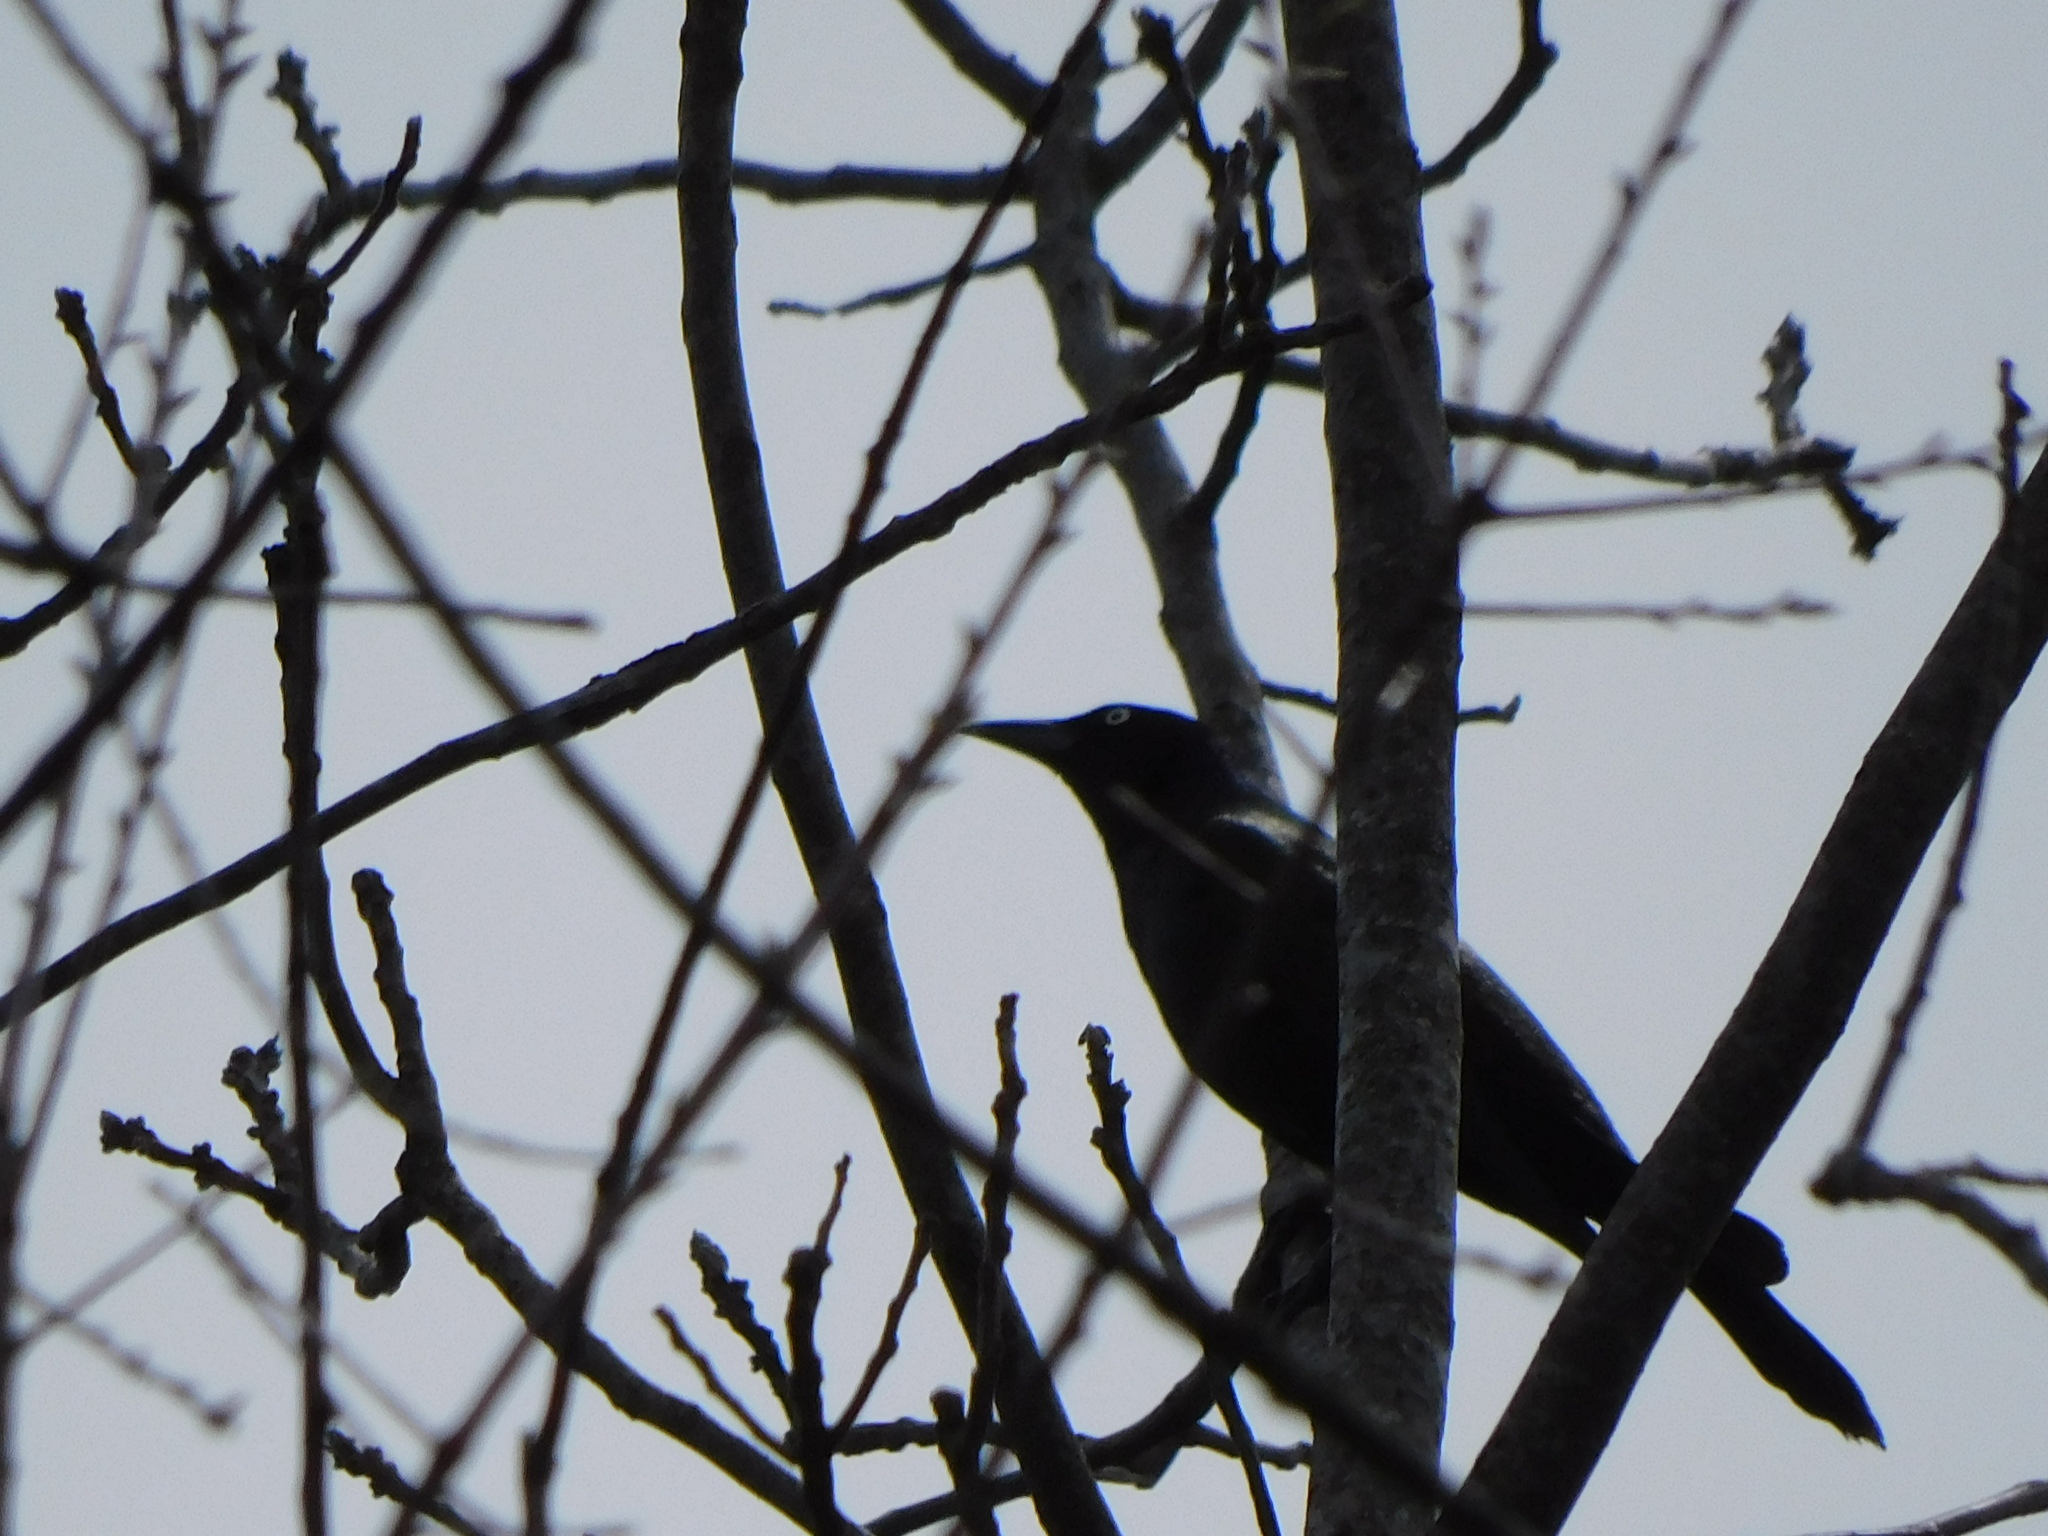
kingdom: Animalia
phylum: Chordata
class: Aves
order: Passeriformes
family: Icteridae
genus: Quiscalus
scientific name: Quiscalus quiscula
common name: Common grackle
